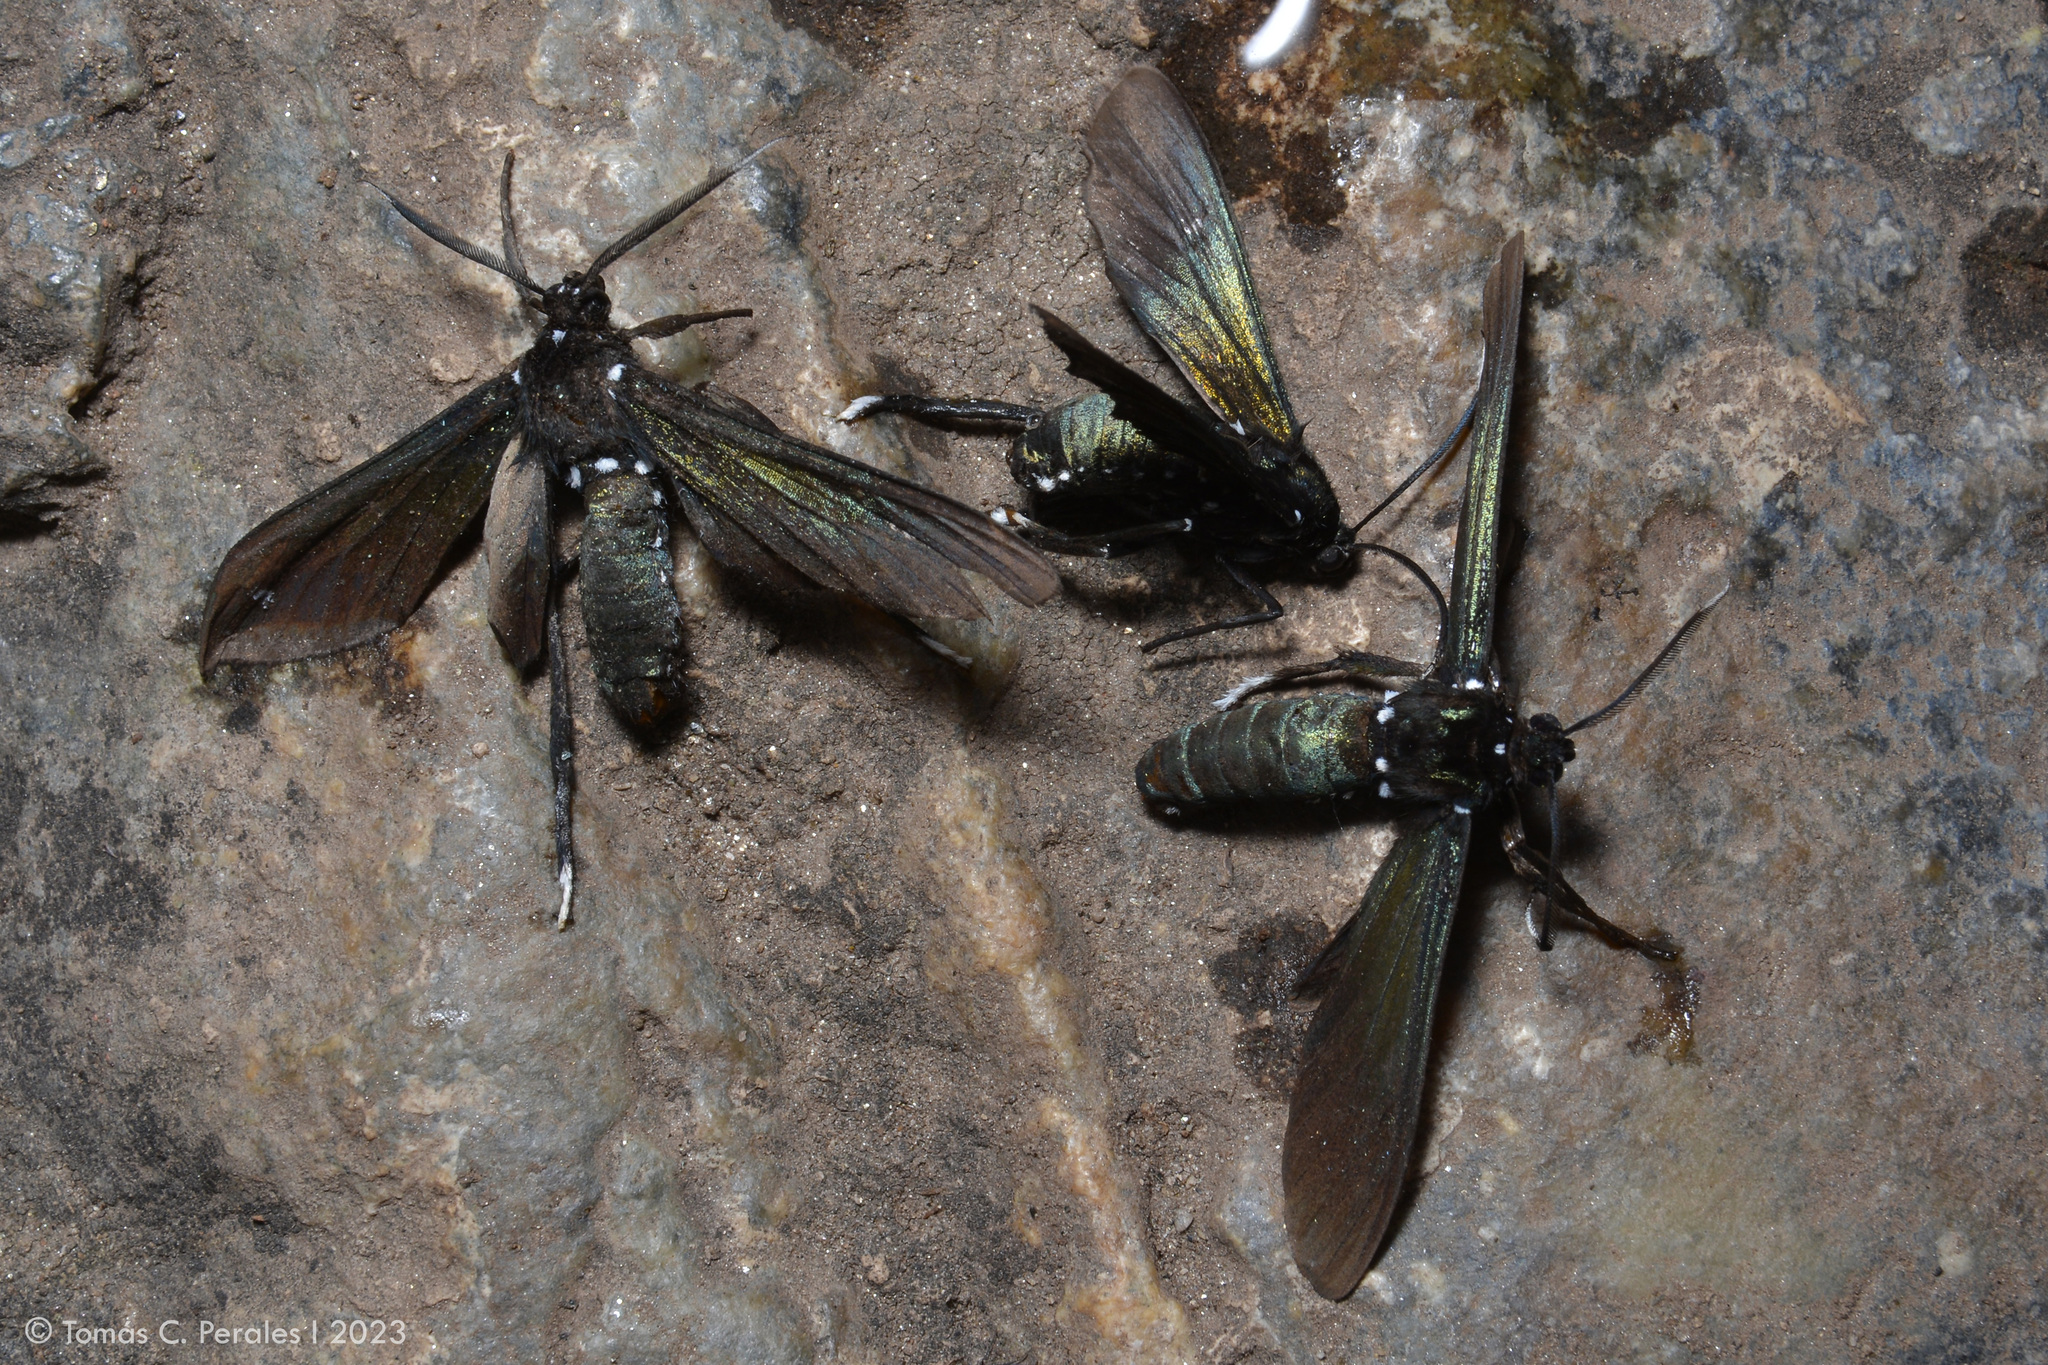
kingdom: Animalia
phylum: Arthropoda
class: Insecta
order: Lepidoptera
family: Erebidae
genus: Macrocneme
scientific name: Macrocneme leucostigma
